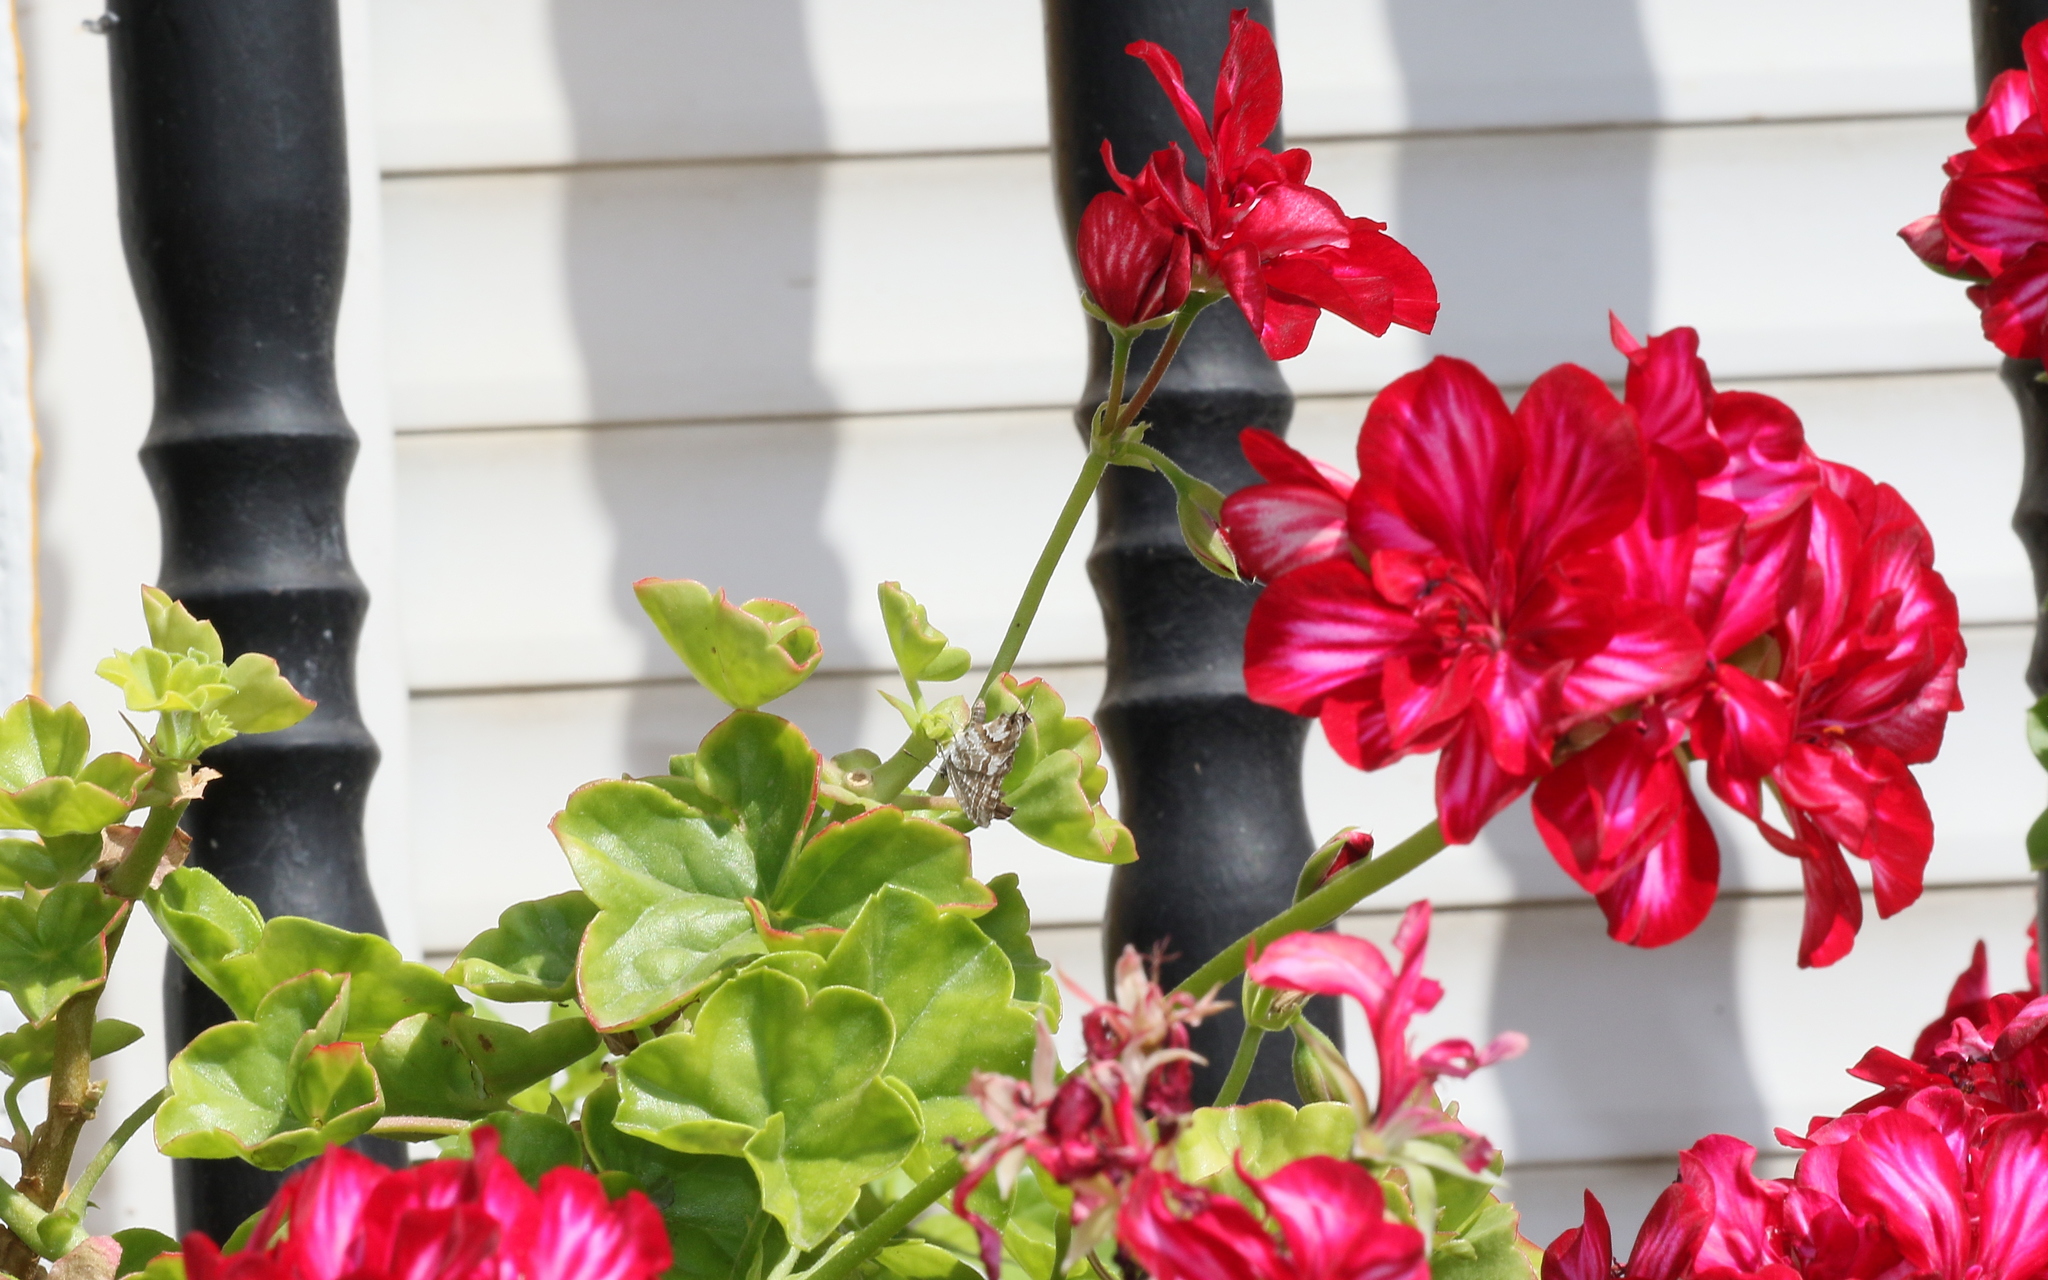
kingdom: Animalia
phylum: Arthropoda
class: Insecta
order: Lepidoptera
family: Lycaenidae
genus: Cacyreus
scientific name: Cacyreus marshalli
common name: Geranium bronze
